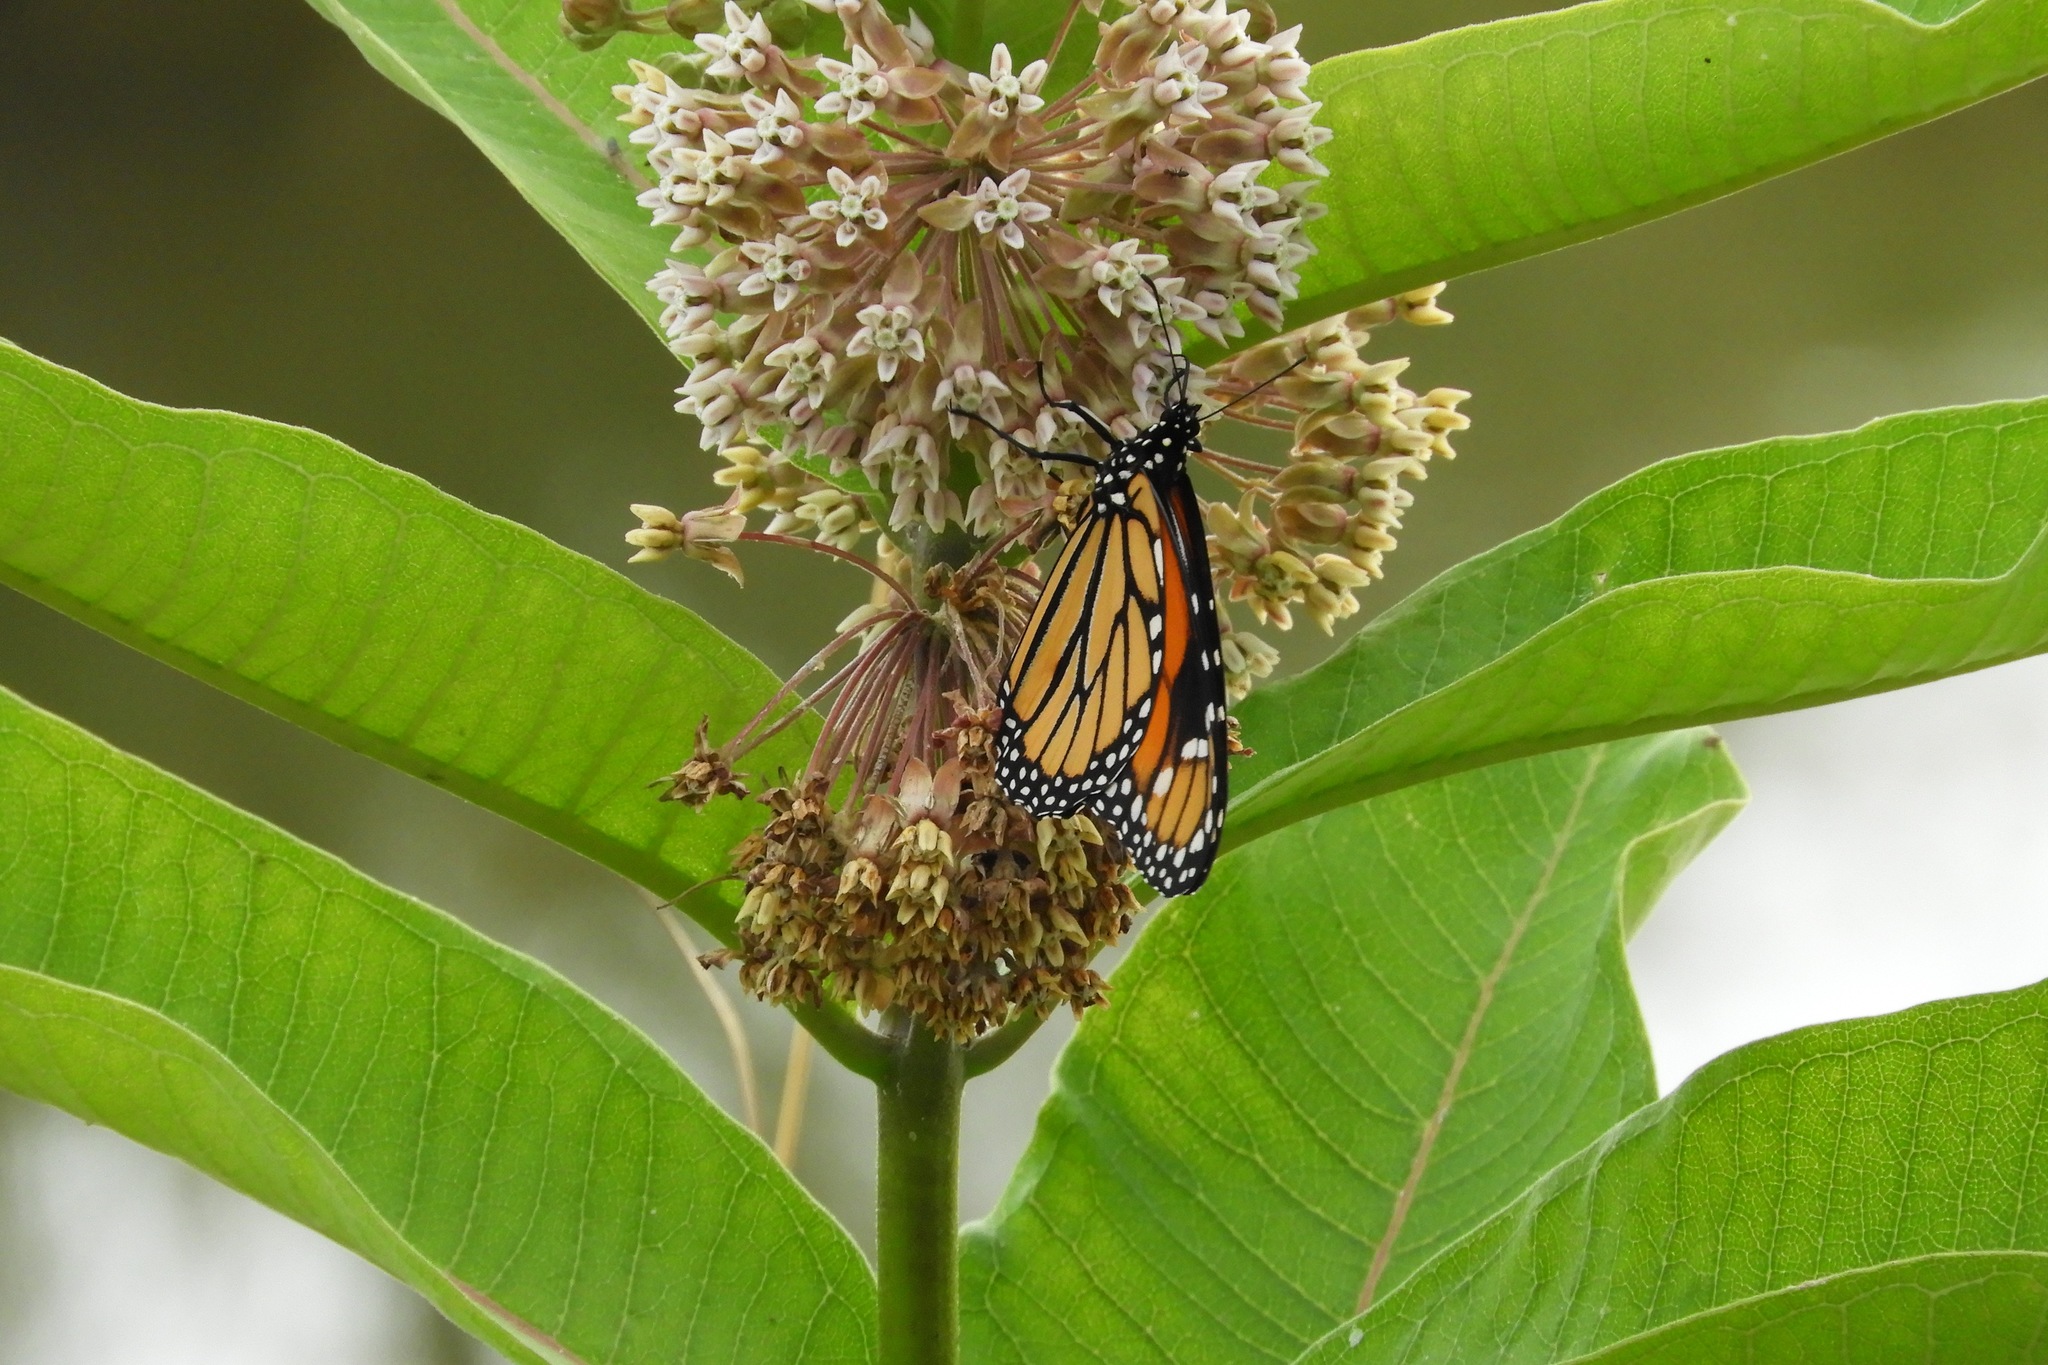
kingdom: Animalia
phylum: Arthropoda
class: Insecta
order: Lepidoptera
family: Nymphalidae
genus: Danaus
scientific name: Danaus plexippus
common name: Monarch
